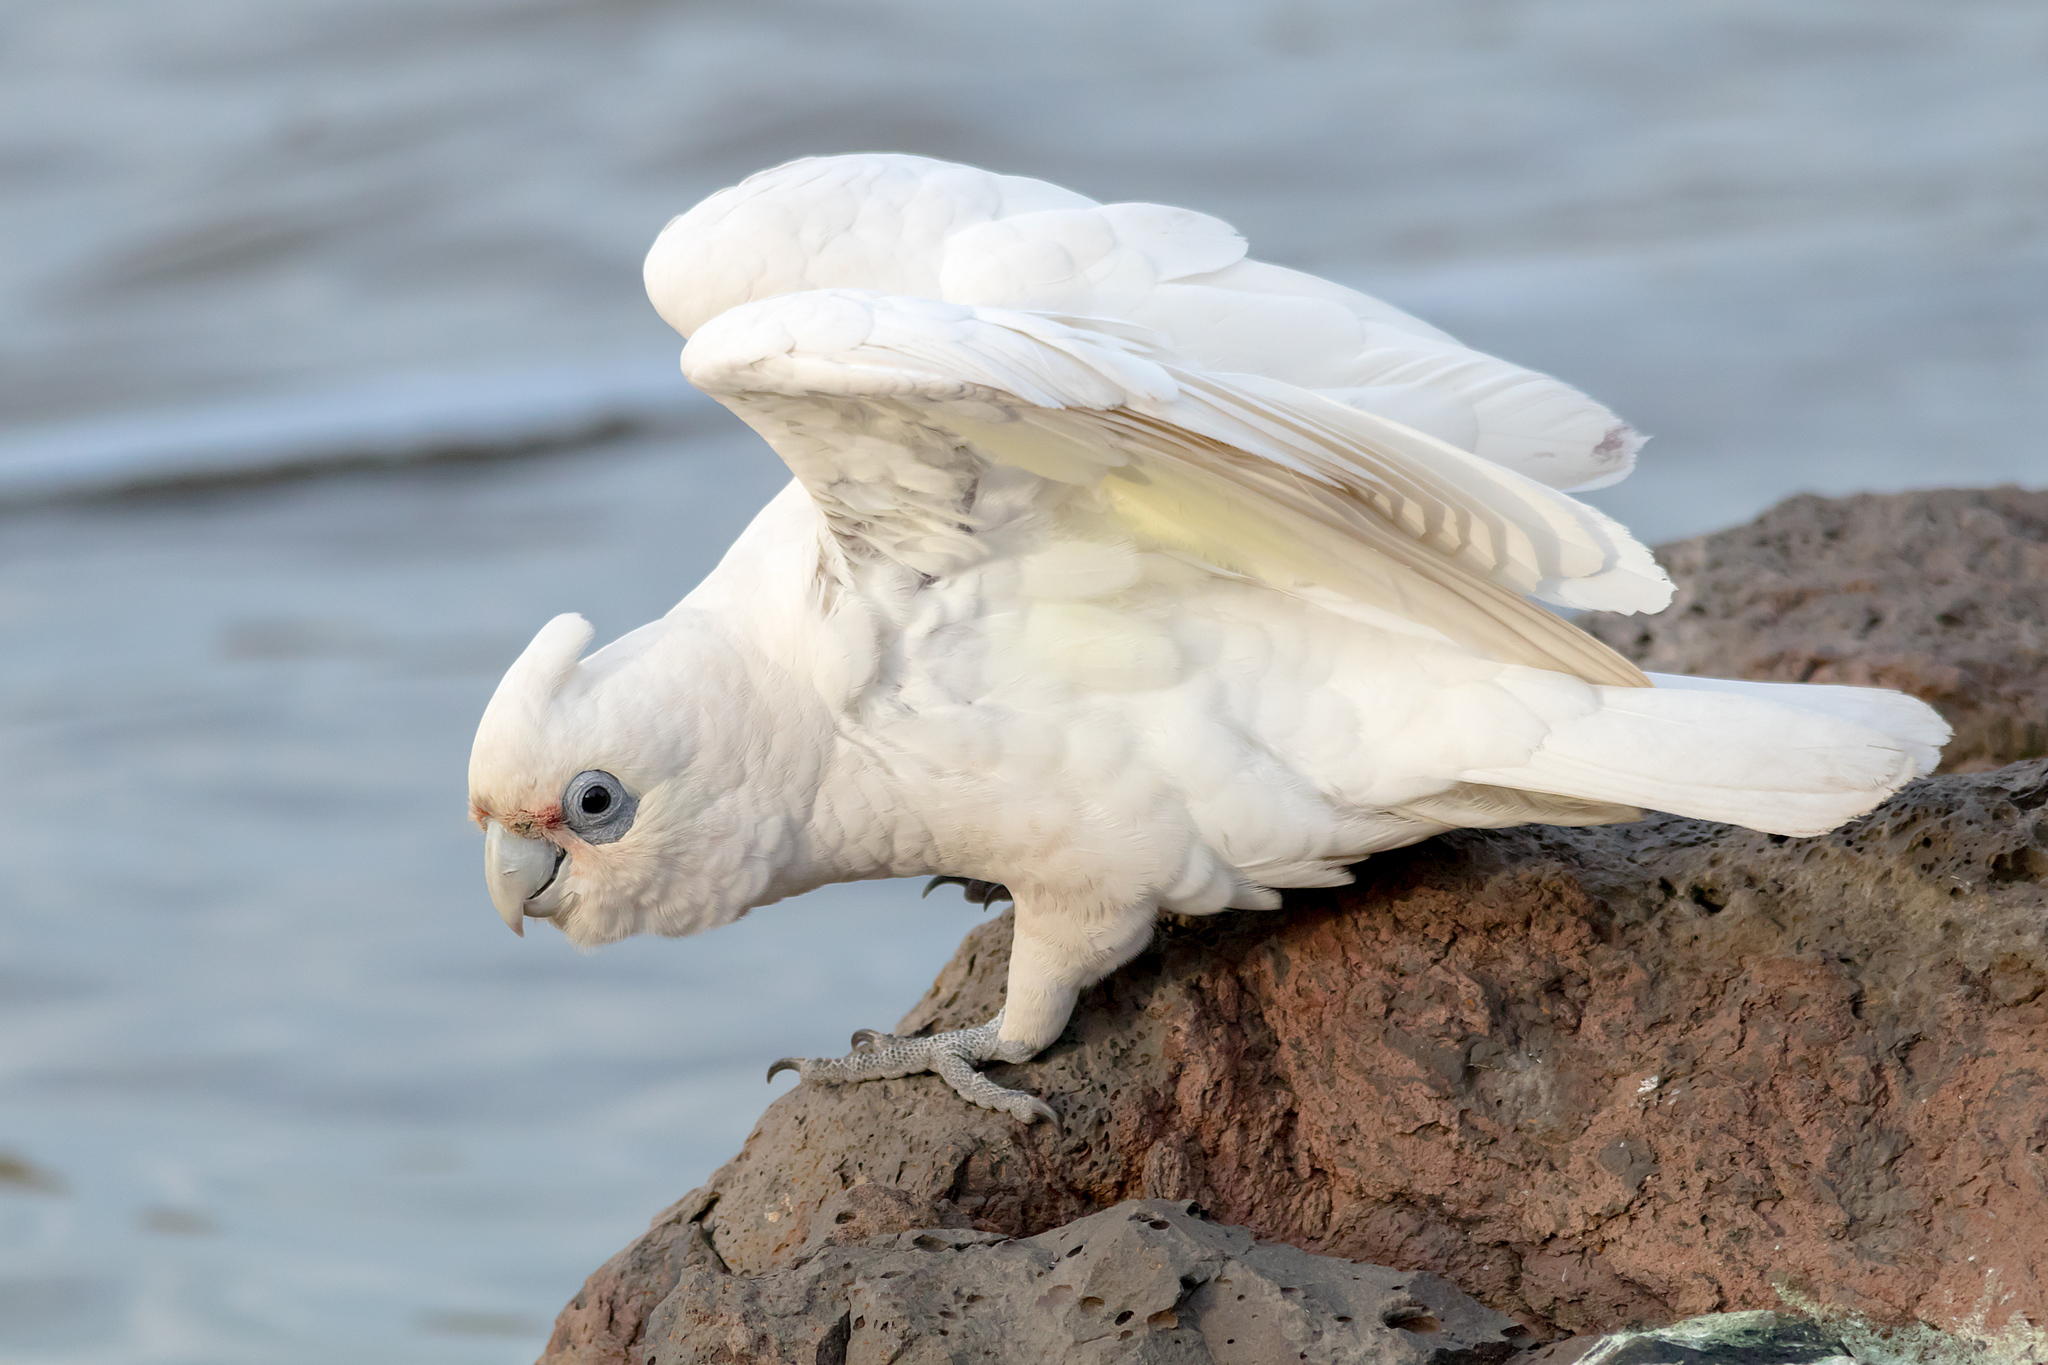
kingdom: Animalia
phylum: Chordata
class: Aves
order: Psittaciformes
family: Psittacidae
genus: Cacatua
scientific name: Cacatua sanguinea
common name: Little corella
